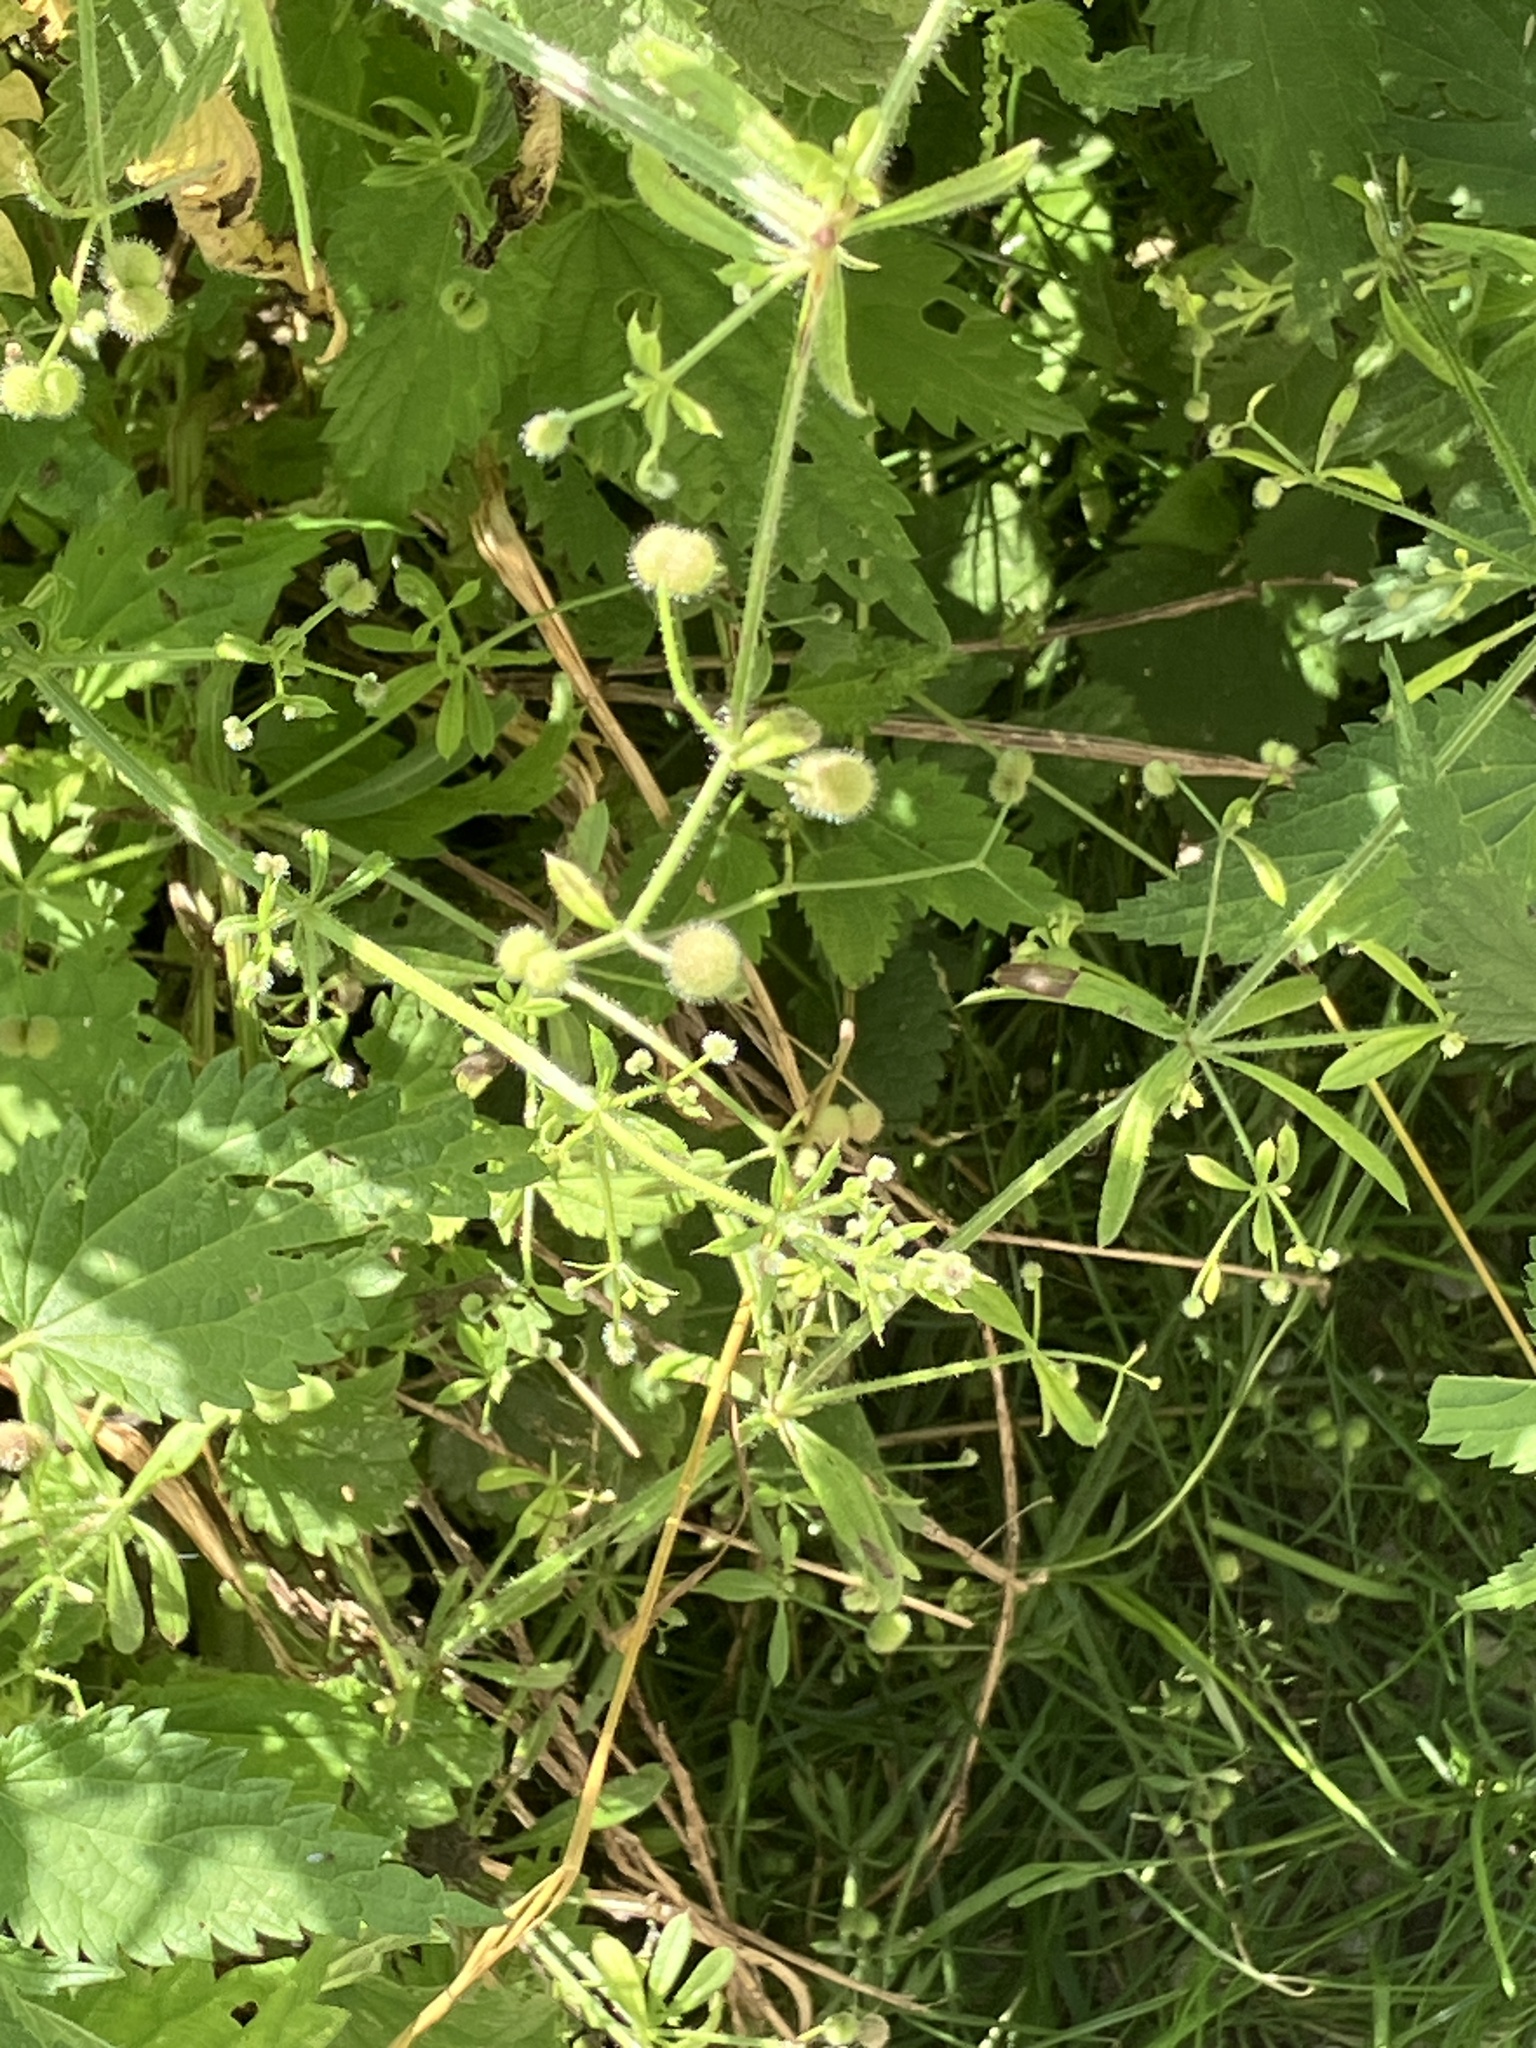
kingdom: Plantae
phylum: Tracheophyta
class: Magnoliopsida
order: Gentianales
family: Rubiaceae
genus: Galium
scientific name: Galium aparine
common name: Cleavers
